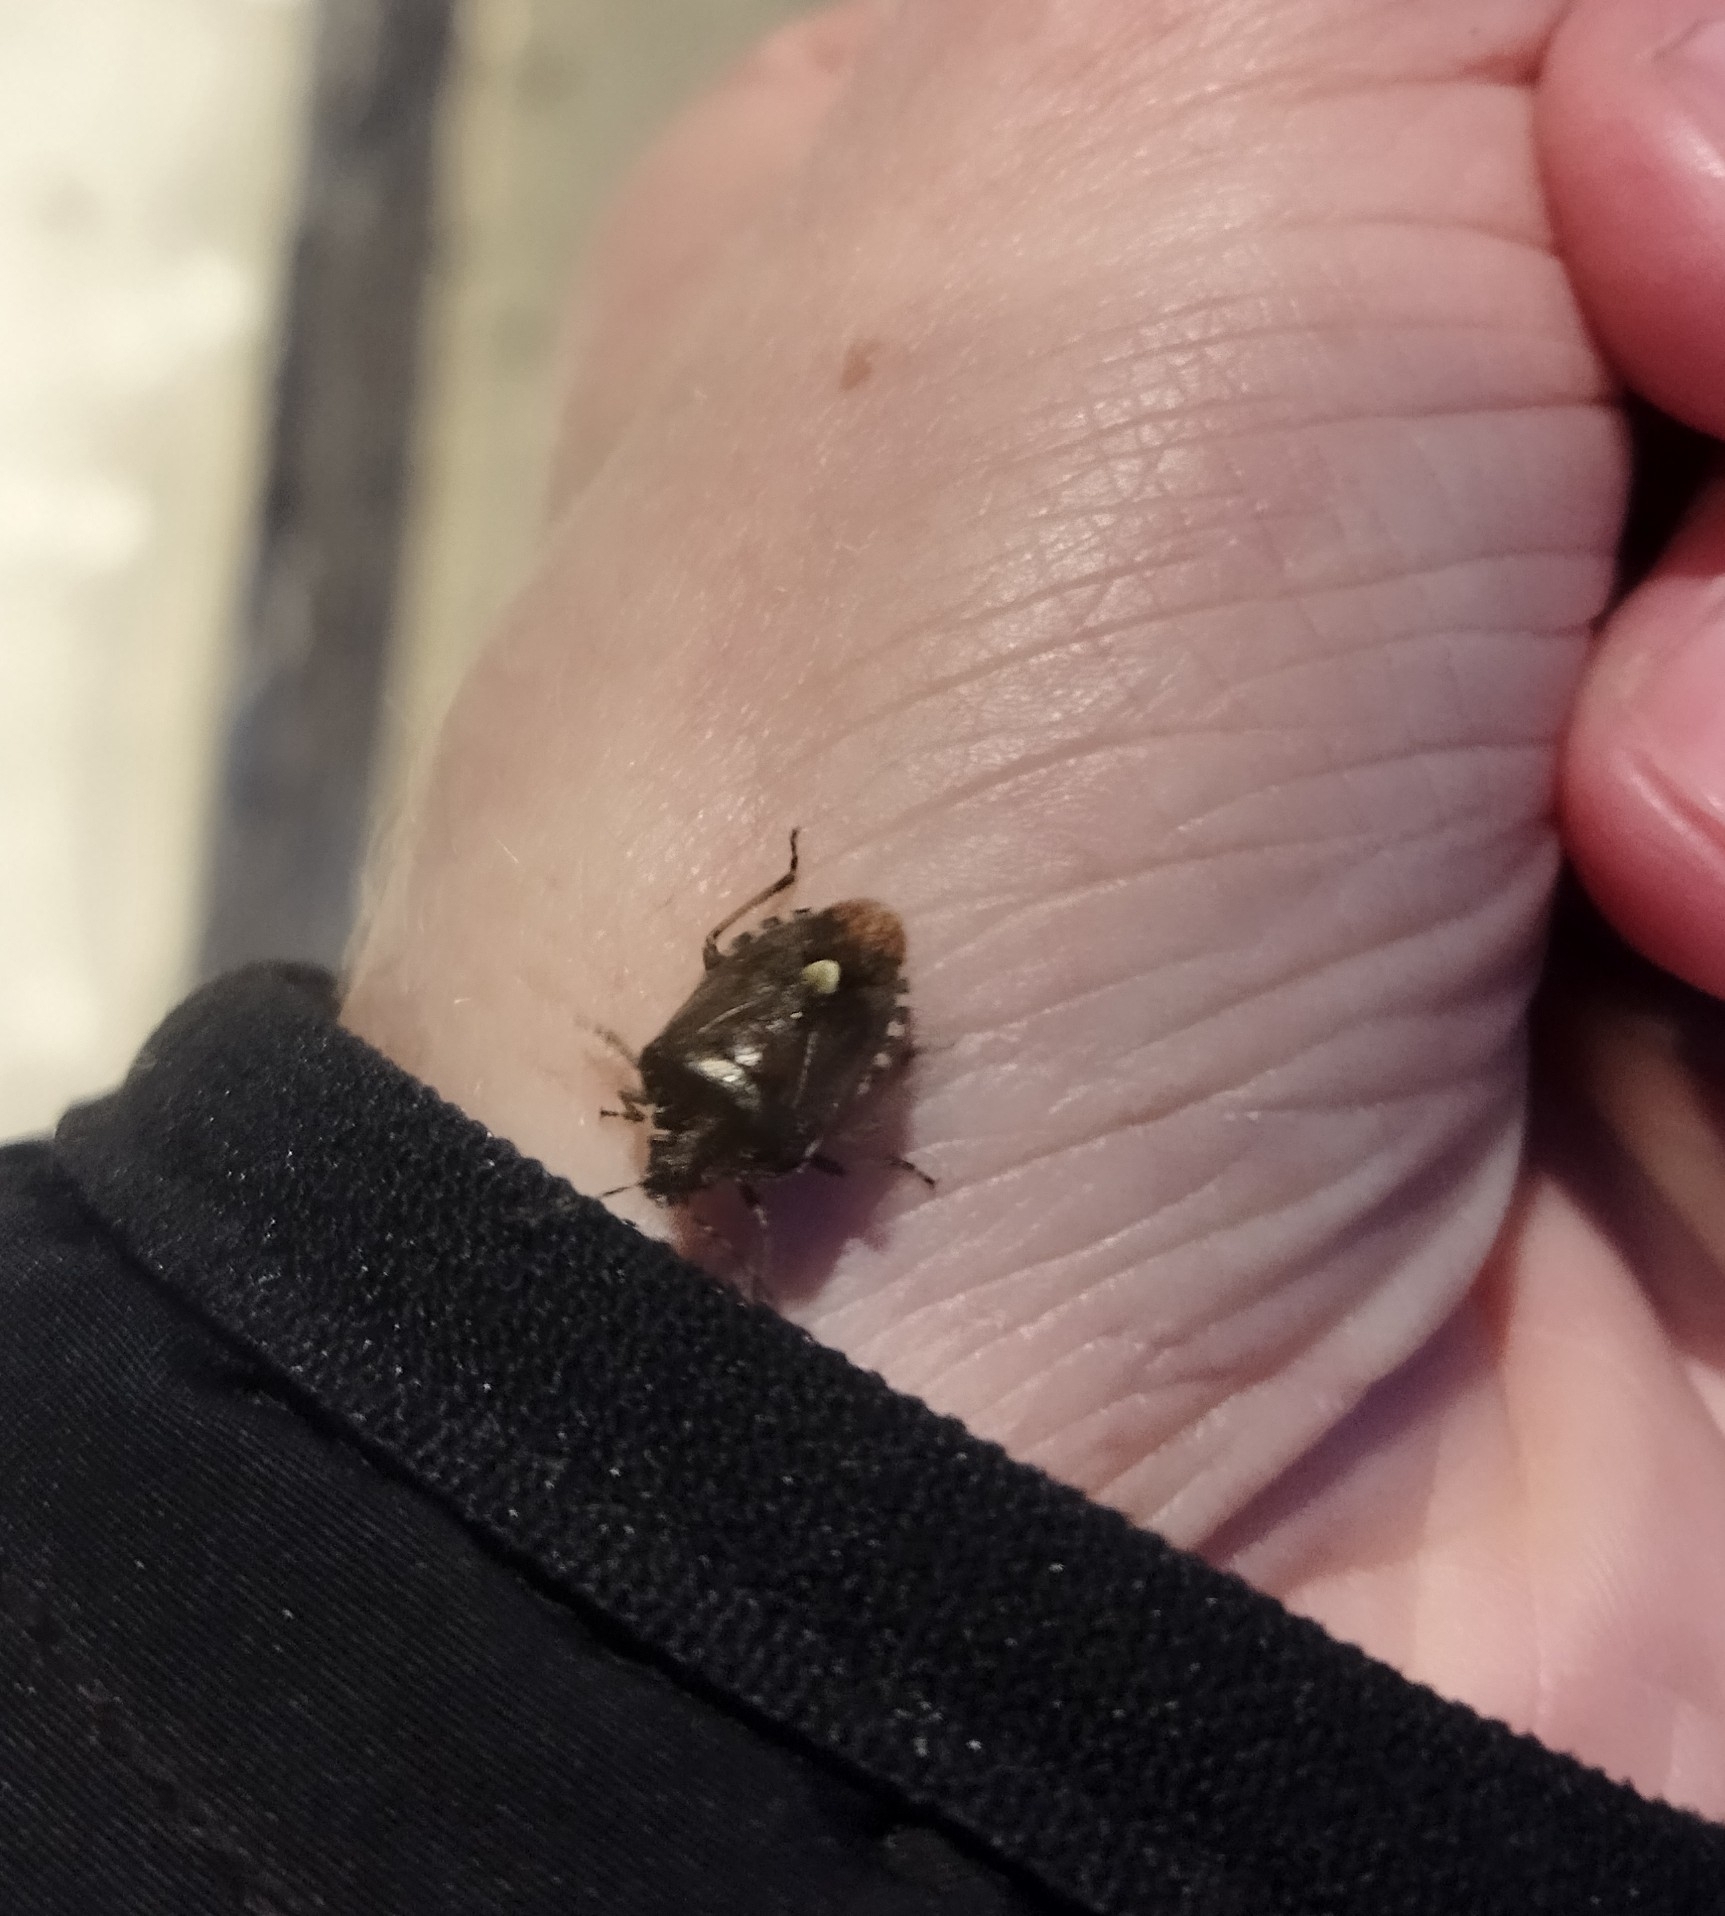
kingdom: Animalia
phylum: Arthropoda
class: Insecta
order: Hemiptera
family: Pentatomidae
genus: Dolycoris
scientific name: Dolycoris baccarum
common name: Sloe bug
